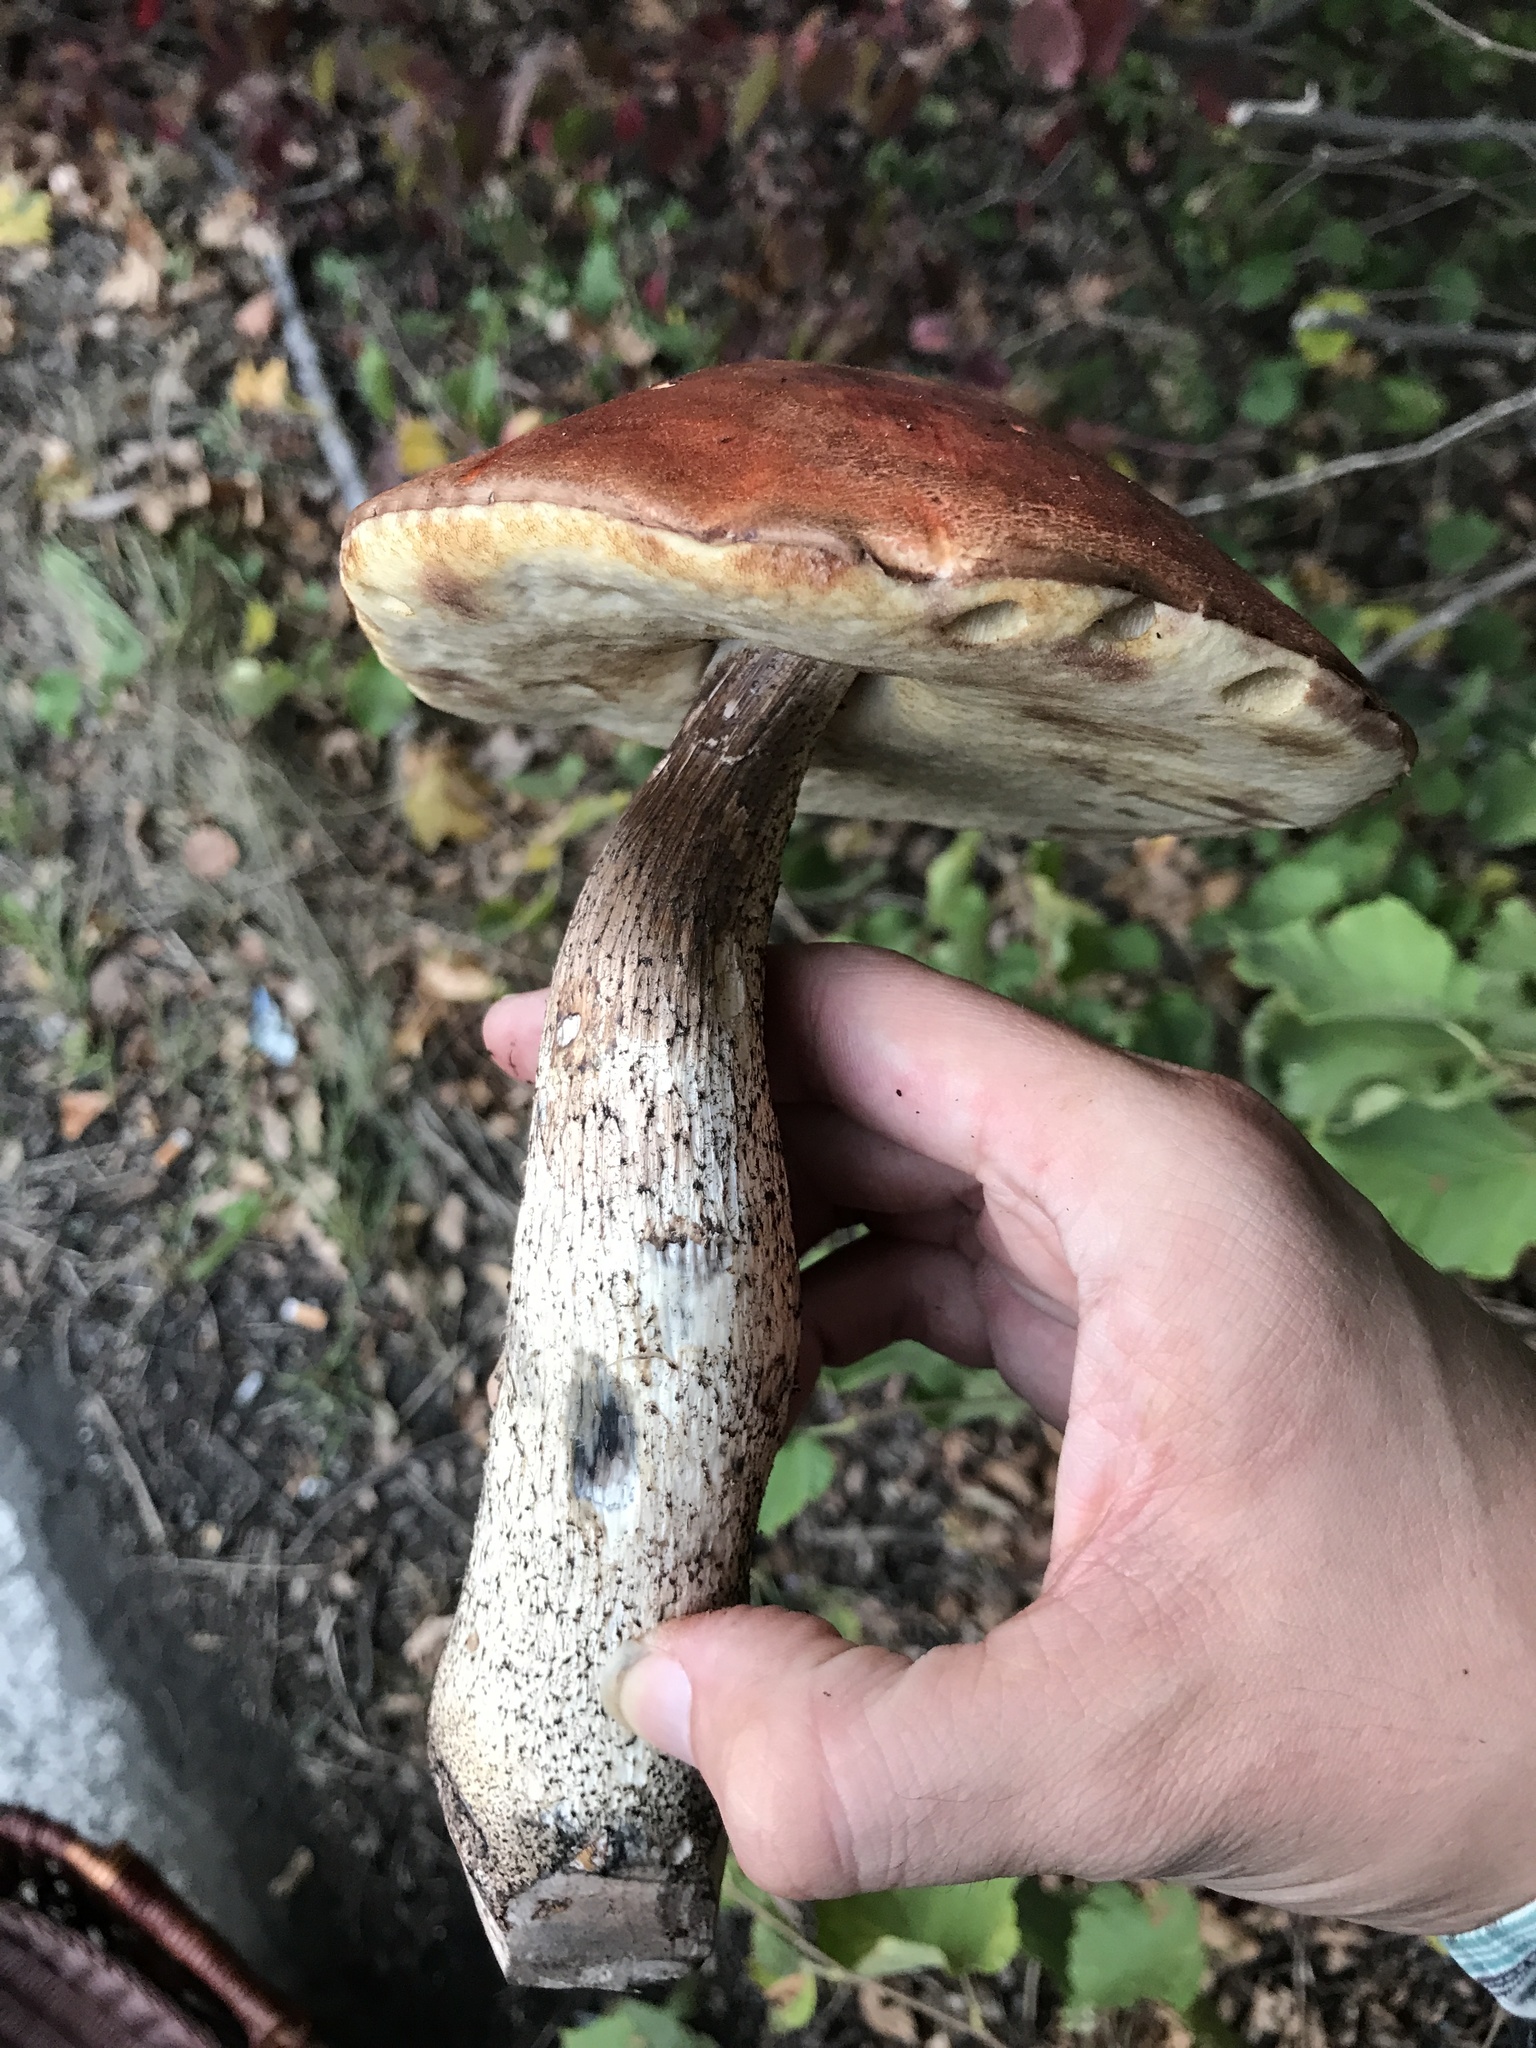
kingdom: Fungi
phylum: Basidiomycota
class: Agaricomycetes
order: Boletales
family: Boletaceae
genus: Leccinum
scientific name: Leccinum aurantiacum
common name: Orange bolete
